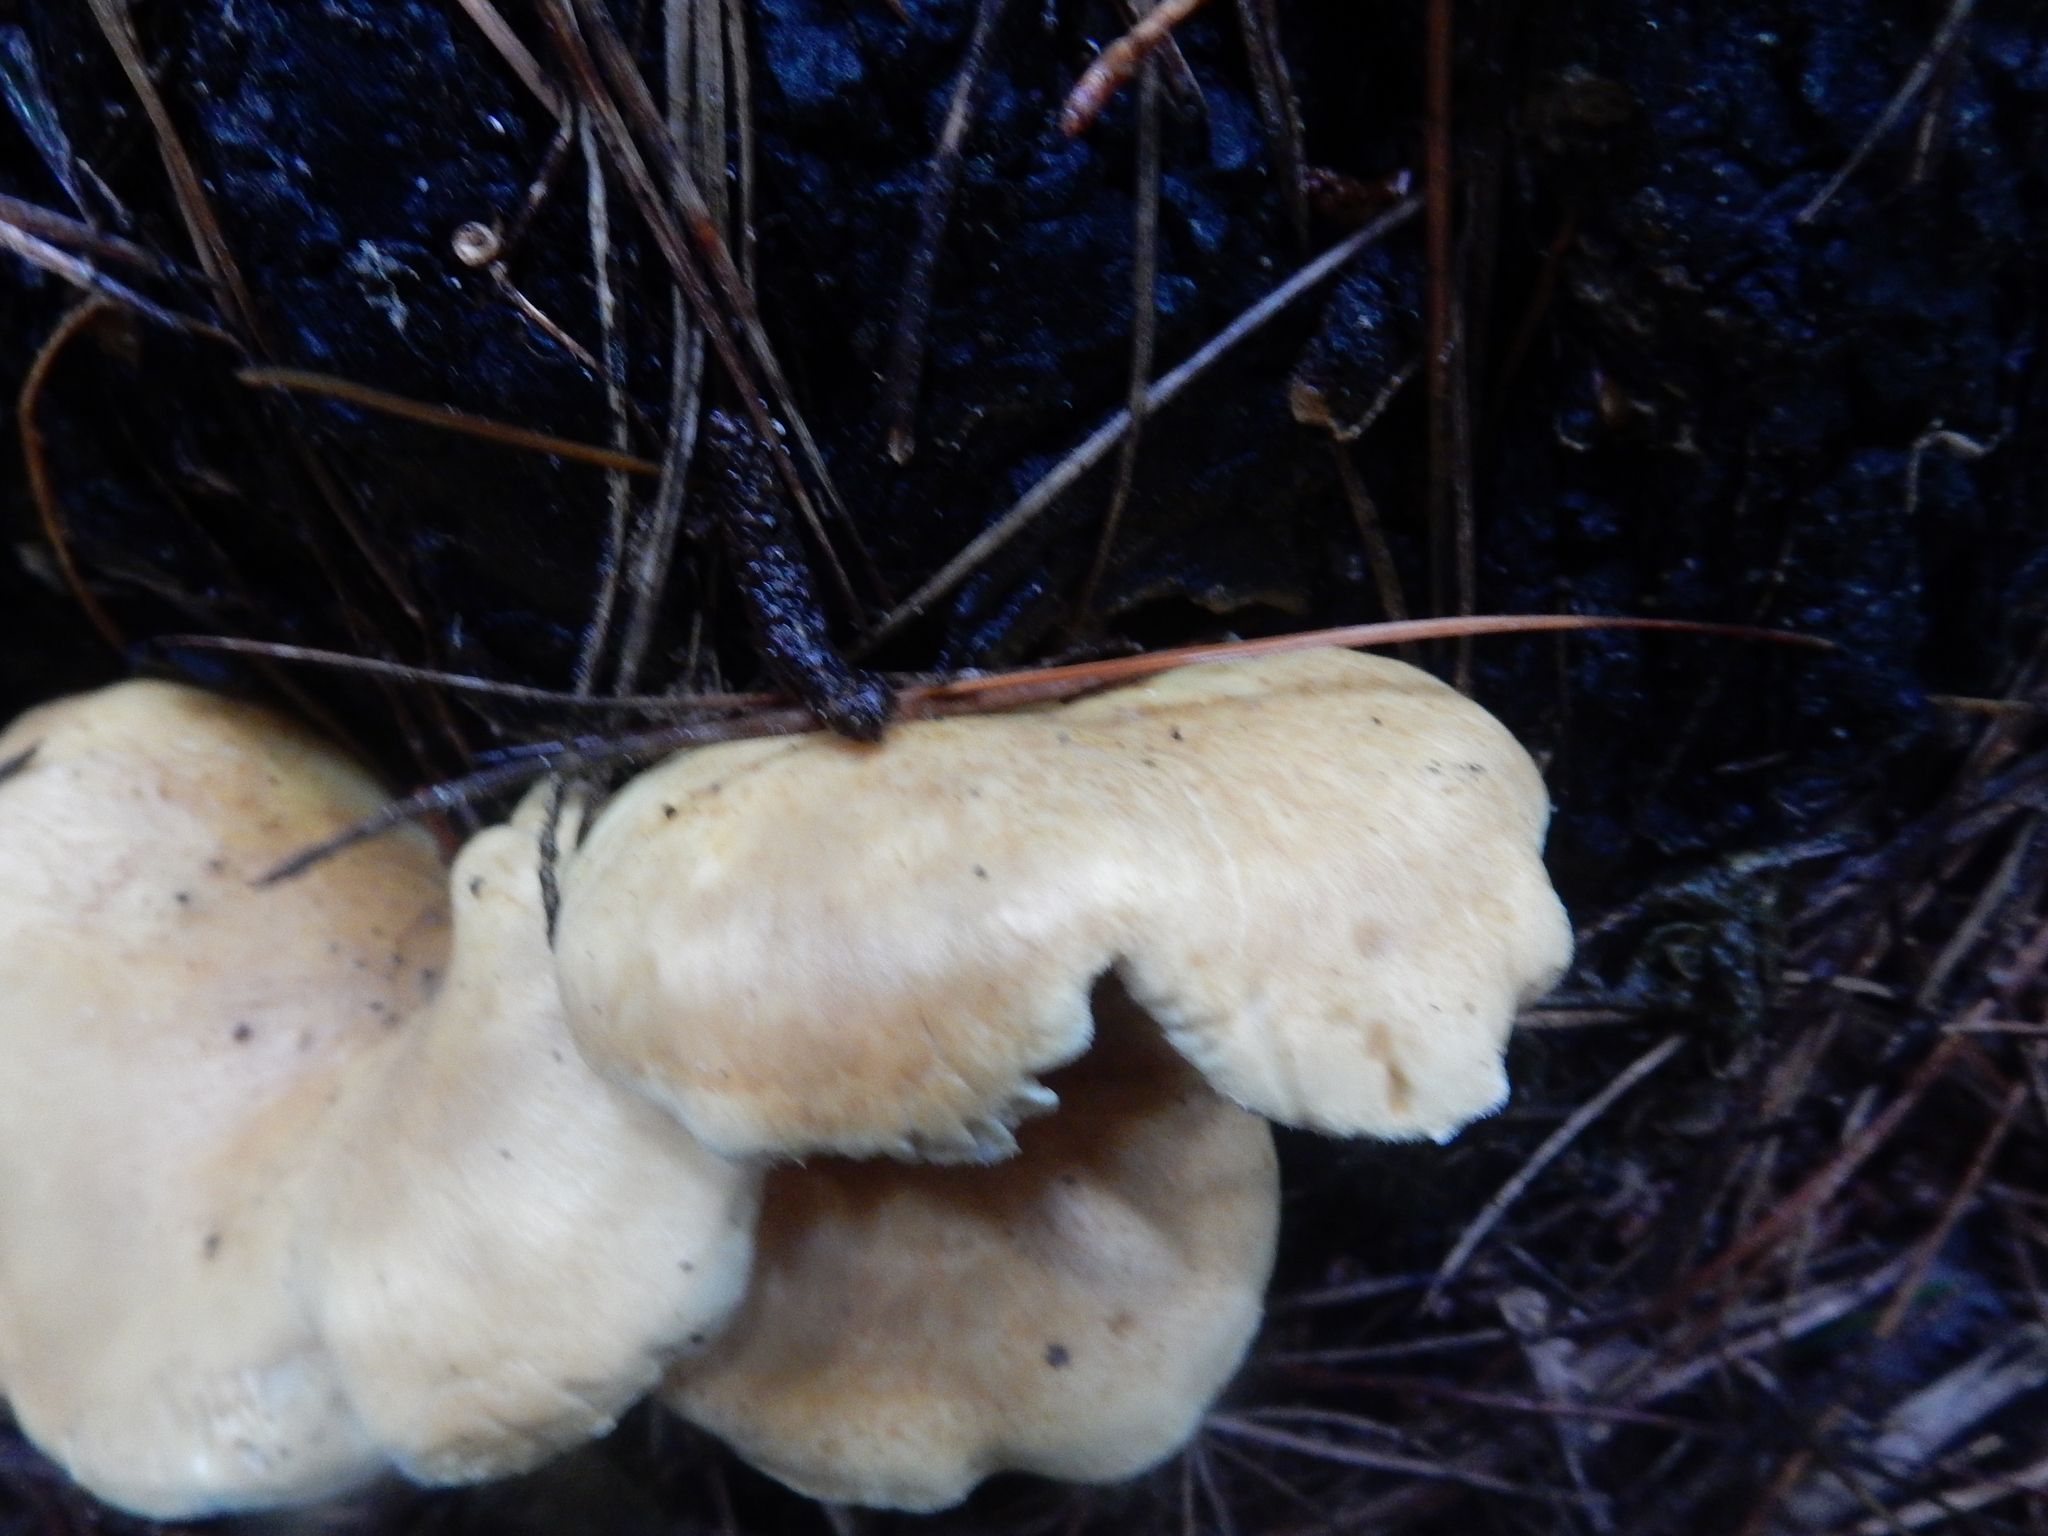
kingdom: Fungi
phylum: Basidiomycota
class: Agaricomycetes
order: Boletales
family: Tapinellaceae
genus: Tapinella
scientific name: Tapinella panuoides
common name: Oyster rollrim
